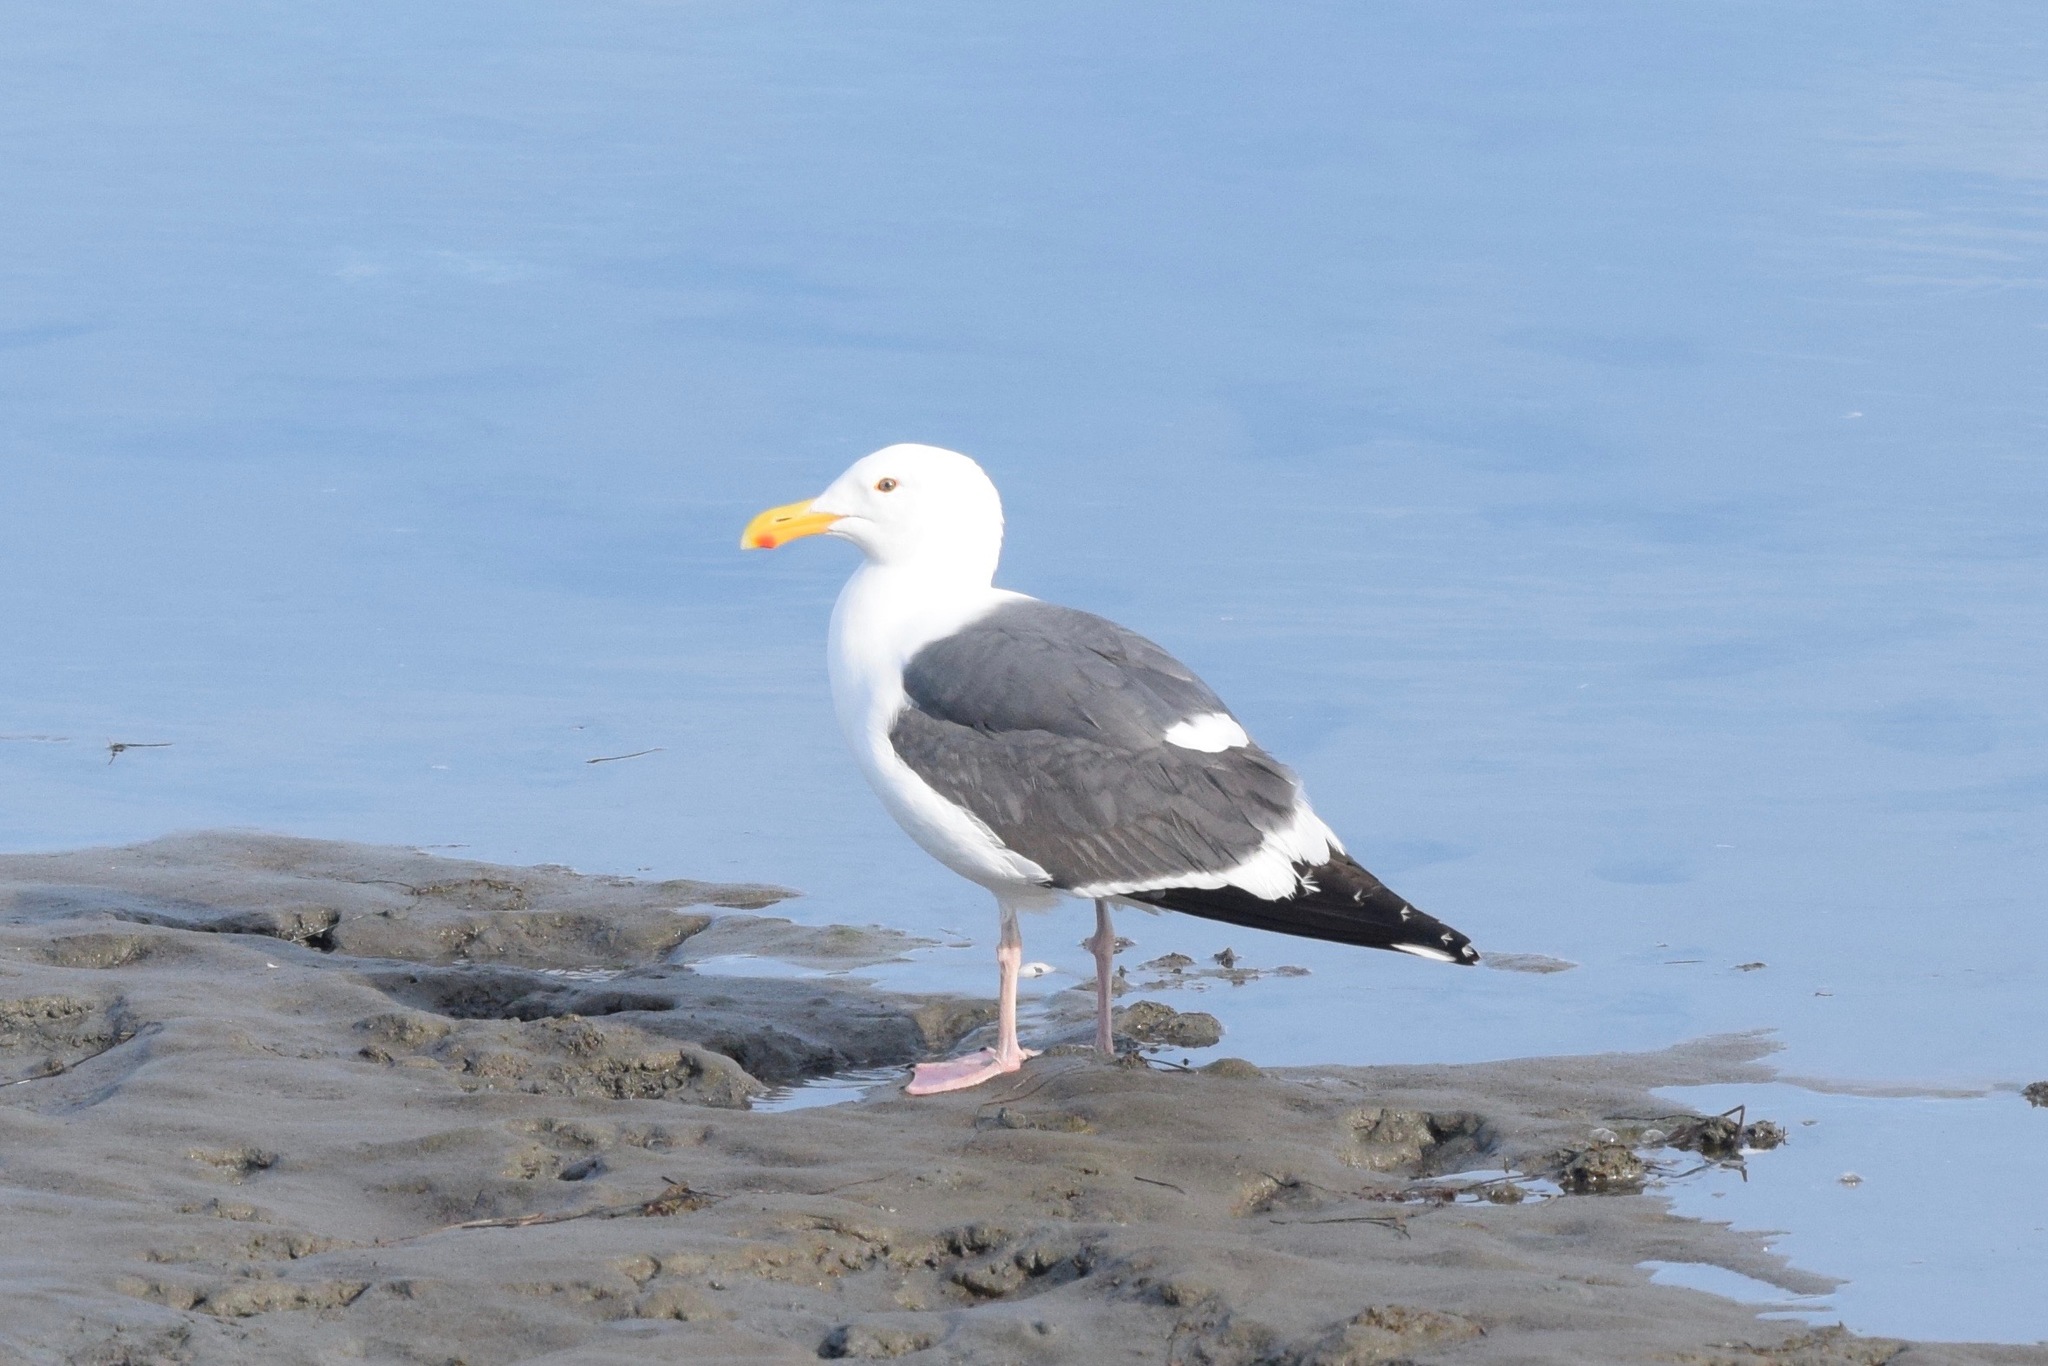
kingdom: Animalia
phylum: Chordata
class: Aves
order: Charadriiformes
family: Laridae
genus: Larus
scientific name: Larus occidentalis
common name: Western gull
